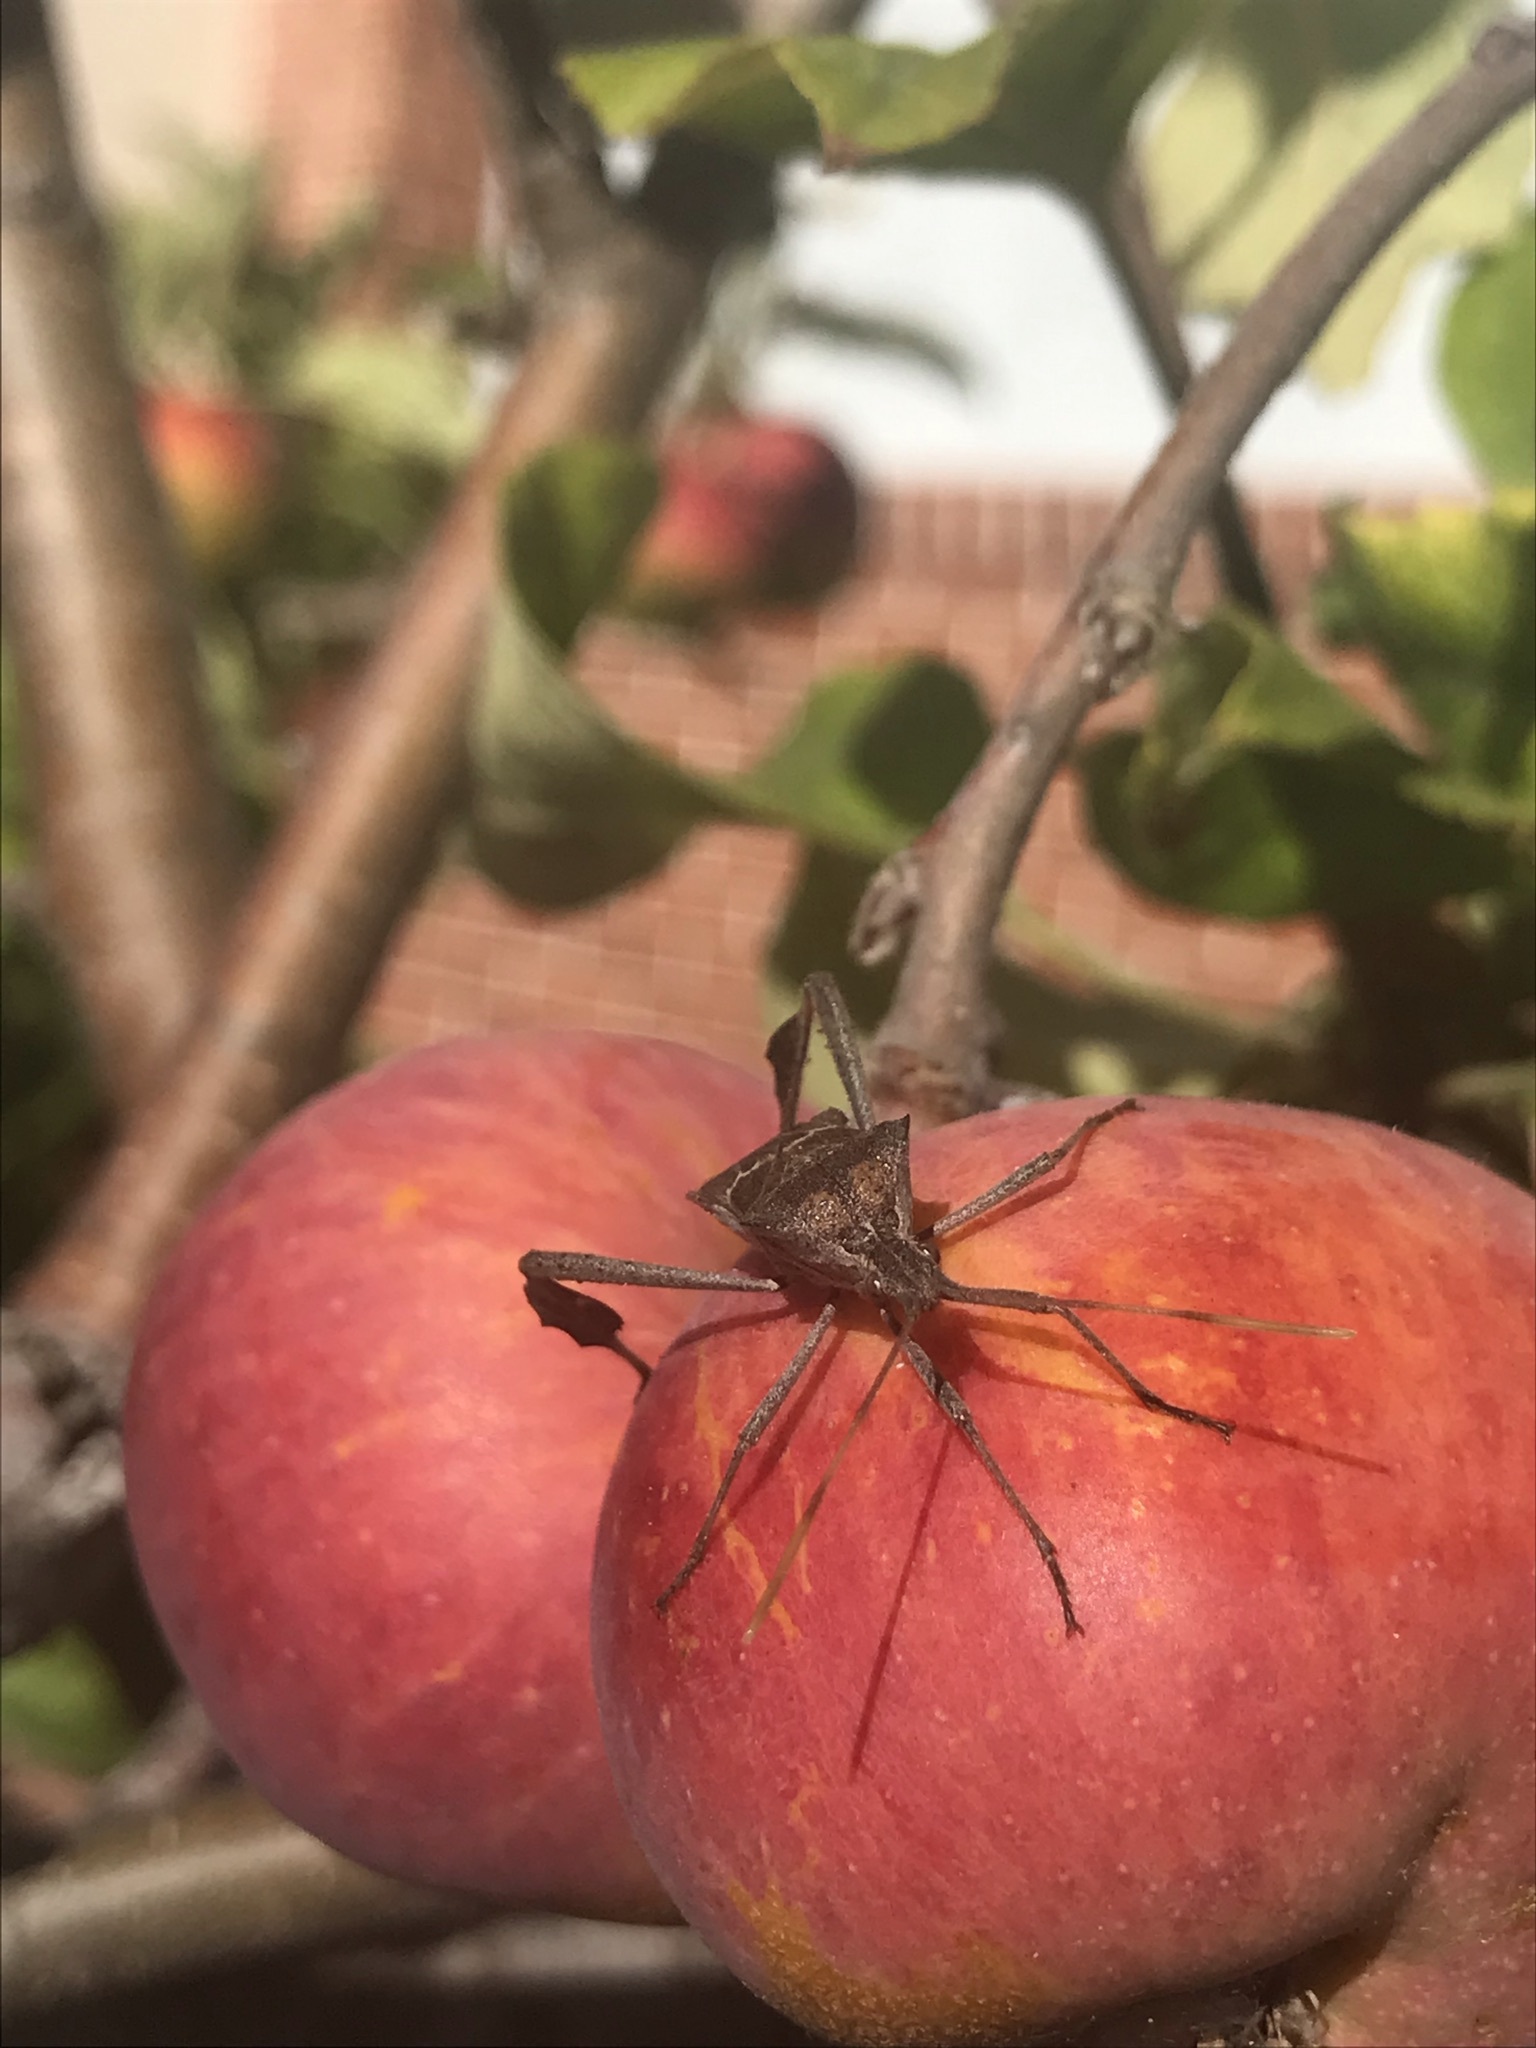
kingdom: Animalia
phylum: Arthropoda
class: Insecta
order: Hemiptera
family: Coreidae
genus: Leptoglossus
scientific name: Leptoglossus zonatus
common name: Large-legged bug
